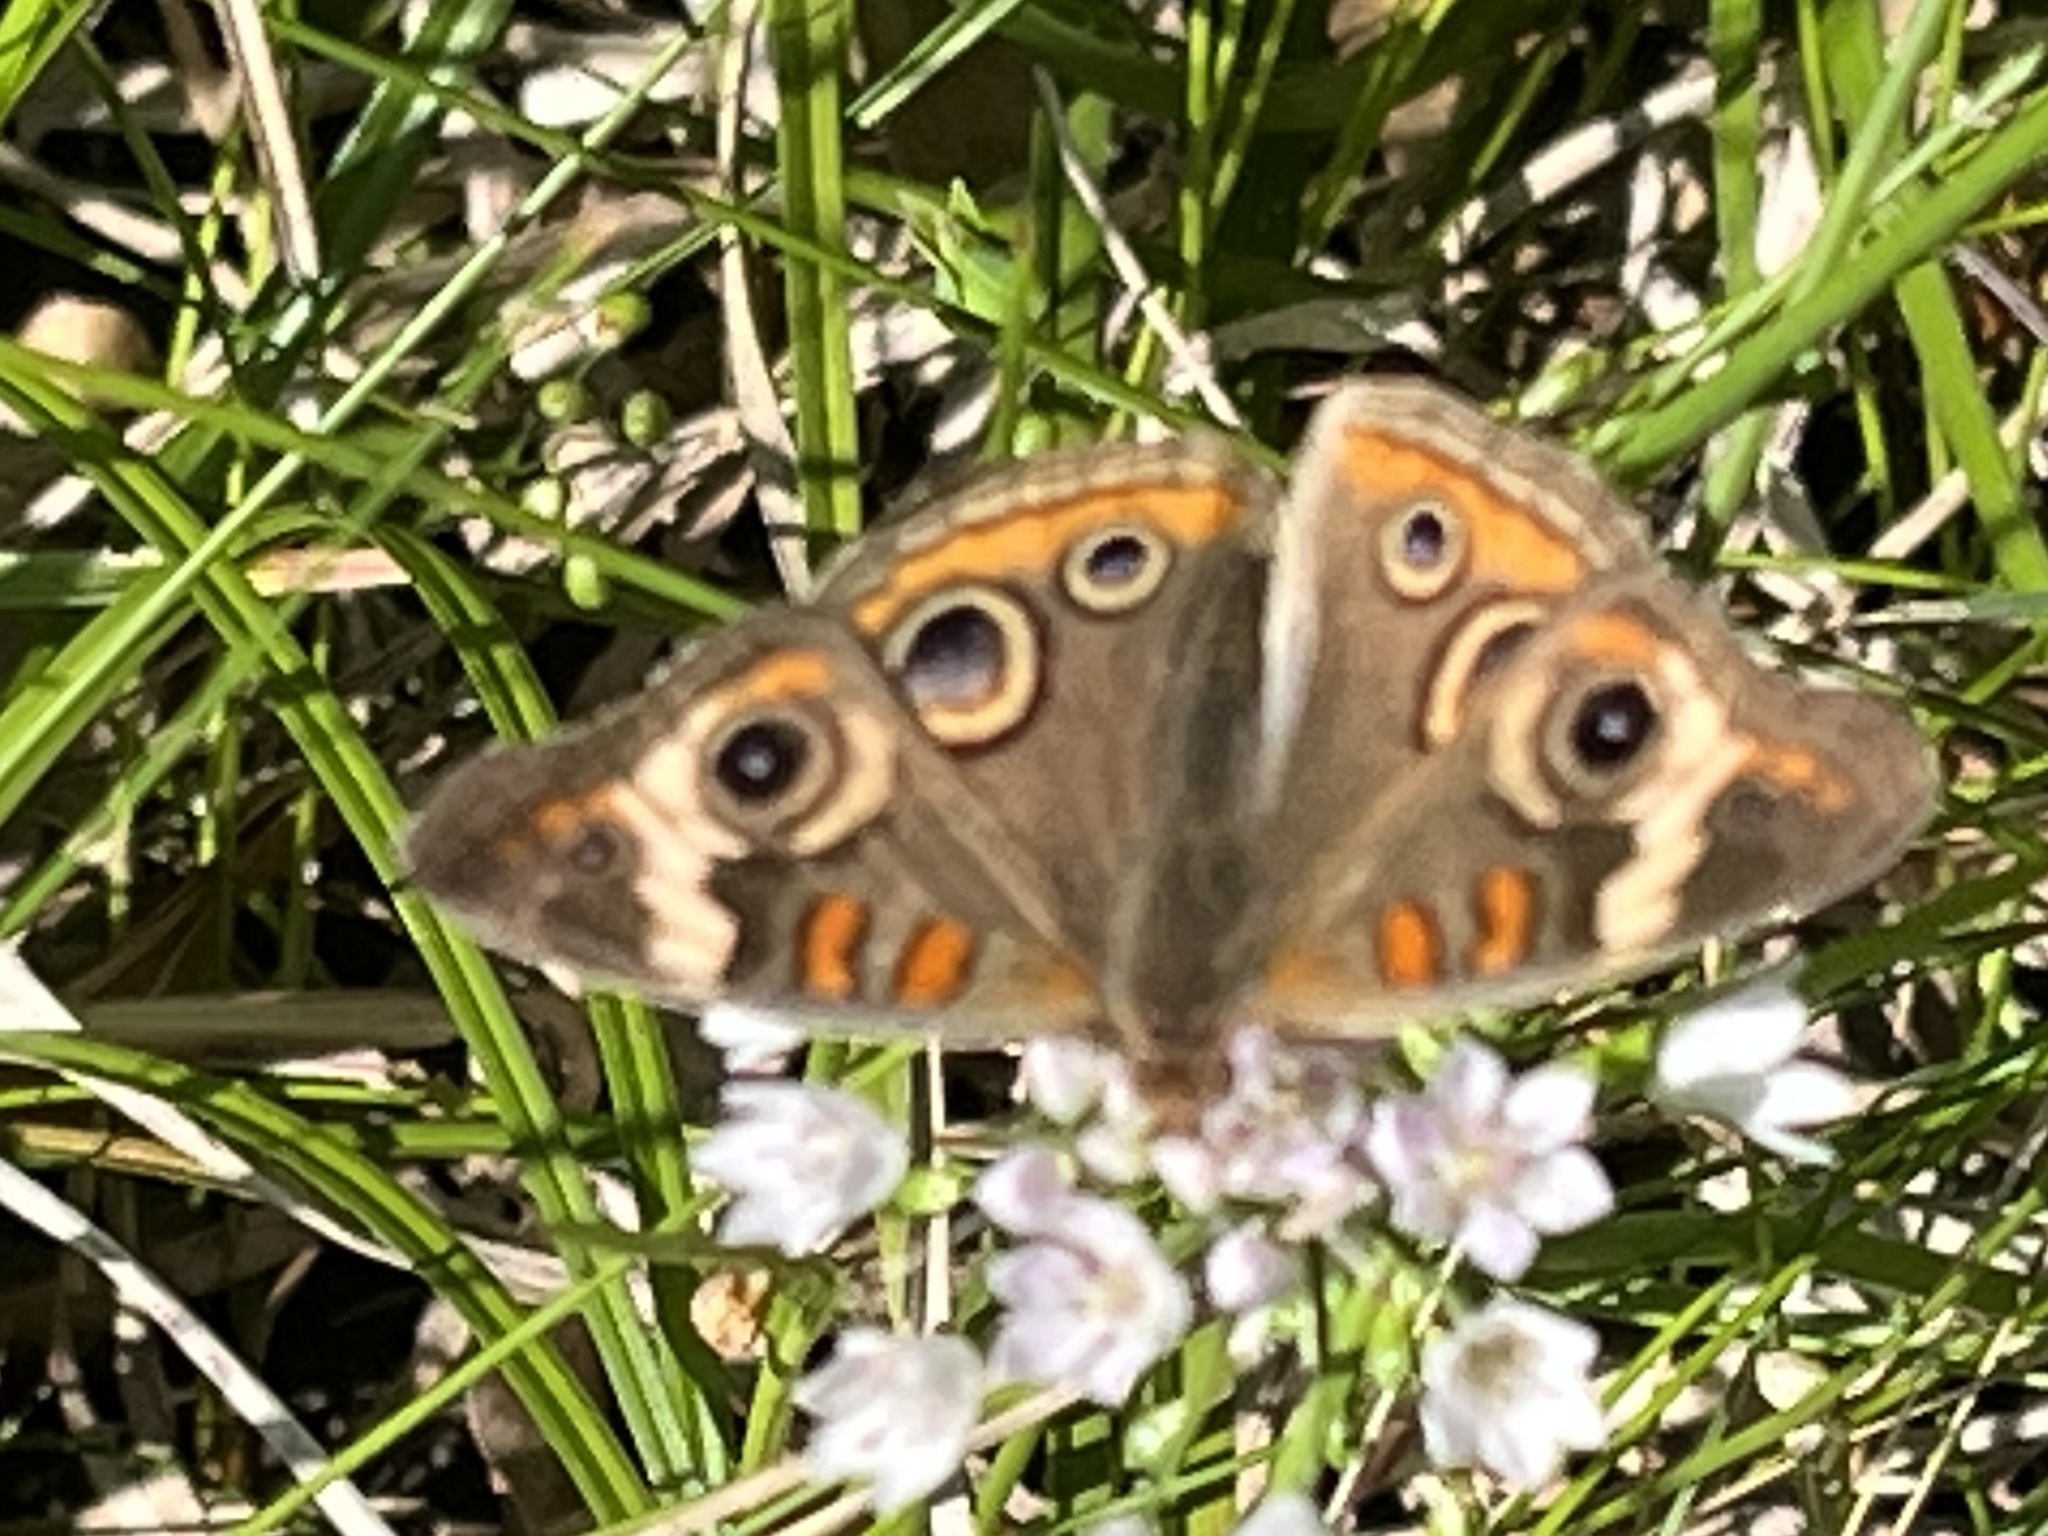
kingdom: Animalia
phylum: Arthropoda
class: Insecta
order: Lepidoptera
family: Nymphalidae
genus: Junonia
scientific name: Junonia coenia
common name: Common buckeye
